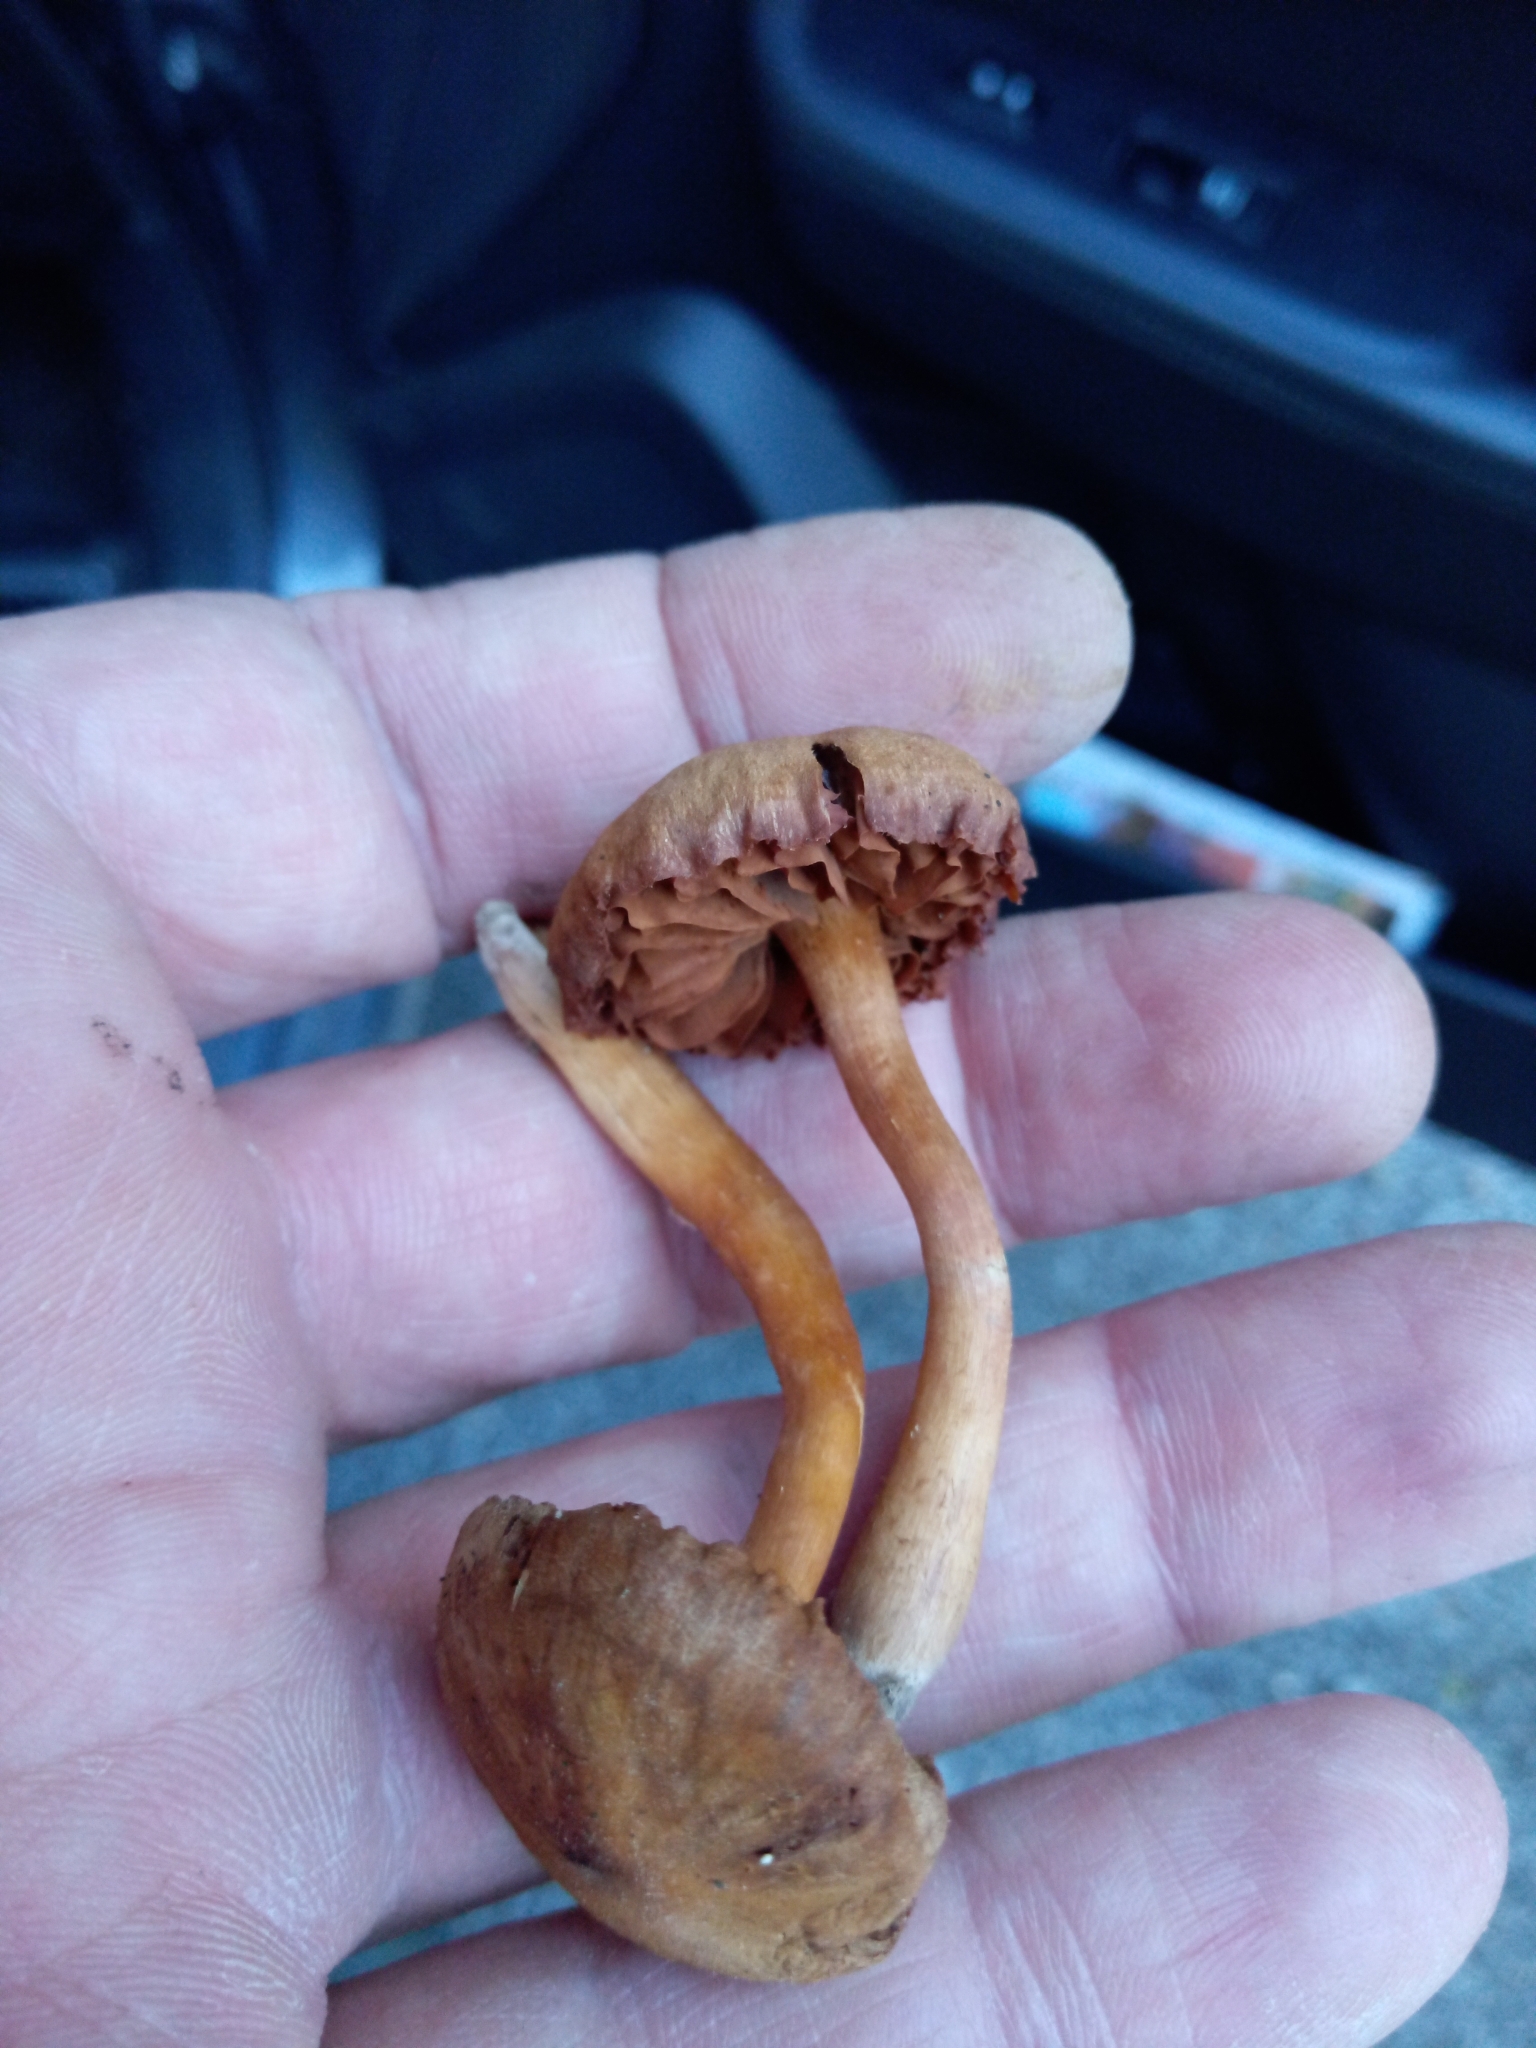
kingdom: Fungi
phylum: Basidiomycota
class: Agaricomycetes
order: Agaricales
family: Cortinariaceae
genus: Cortinarius
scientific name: Cortinarius
